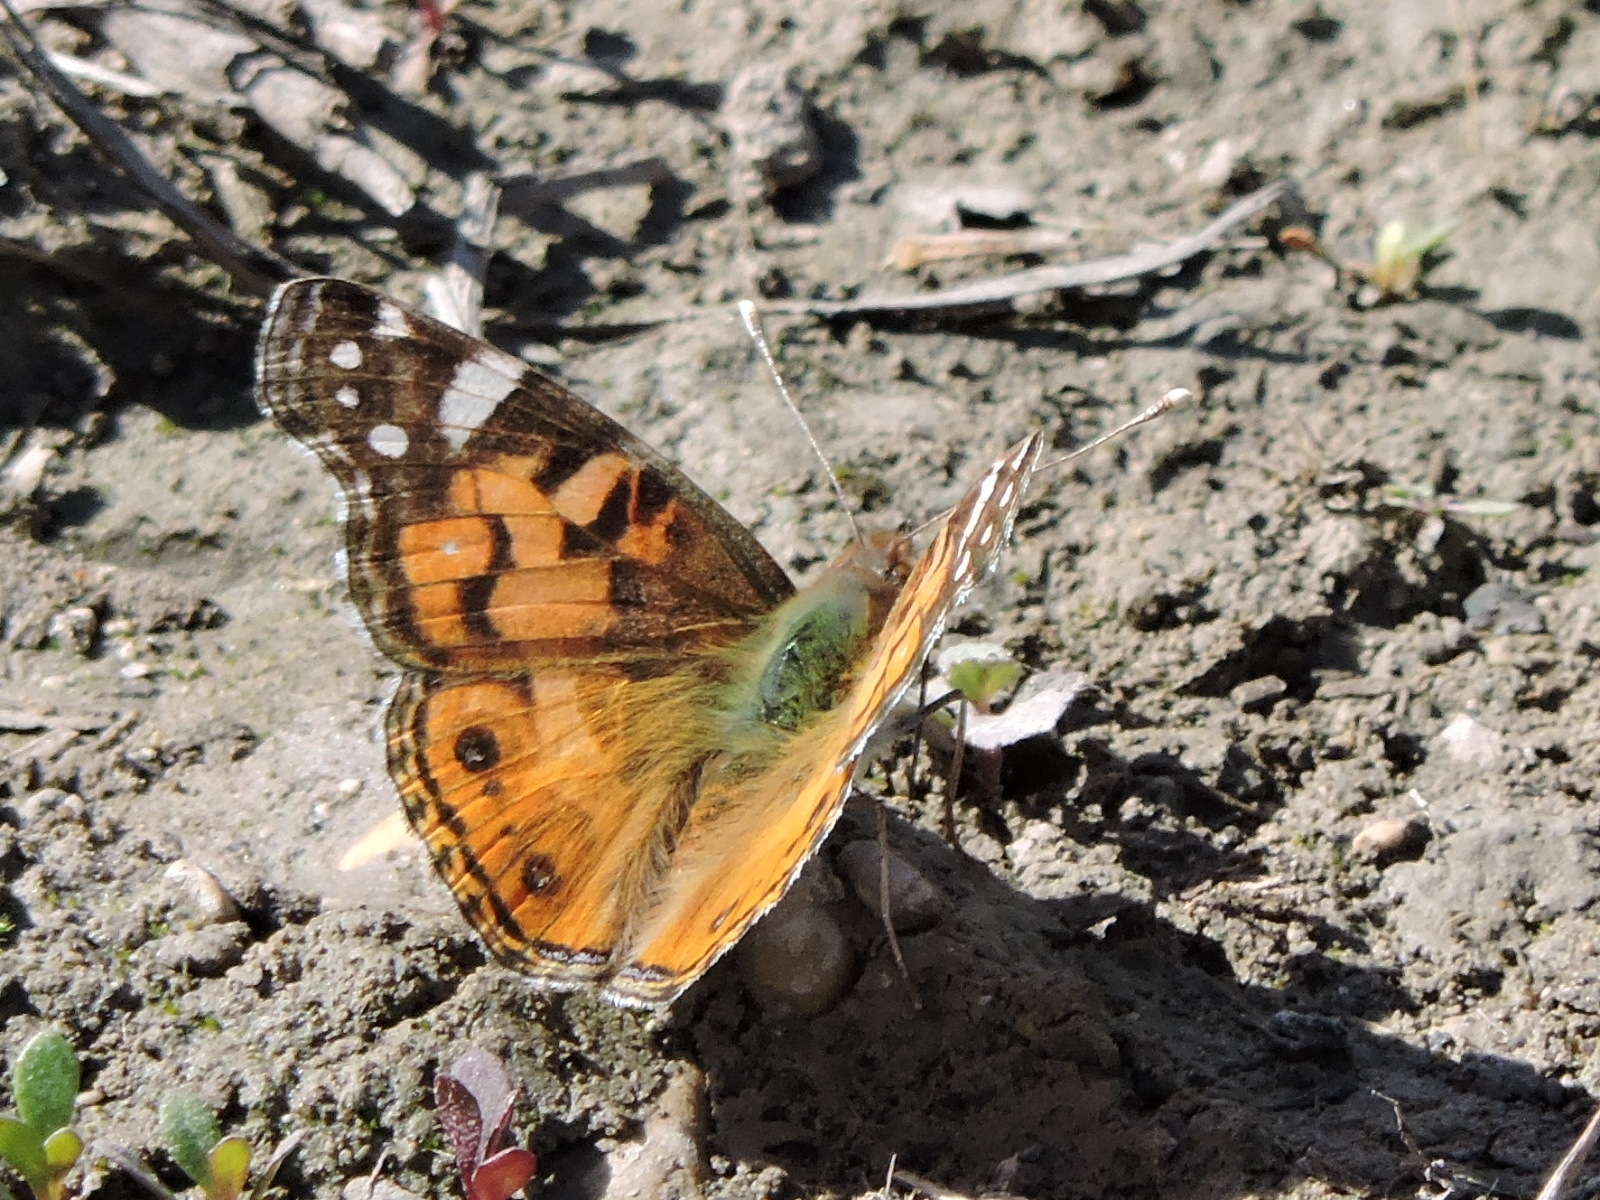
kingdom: Animalia
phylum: Arthropoda
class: Insecta
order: Lepidoptera
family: Nymphalidae
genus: Vanessa
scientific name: Vanessa virginiensis
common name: American lady
